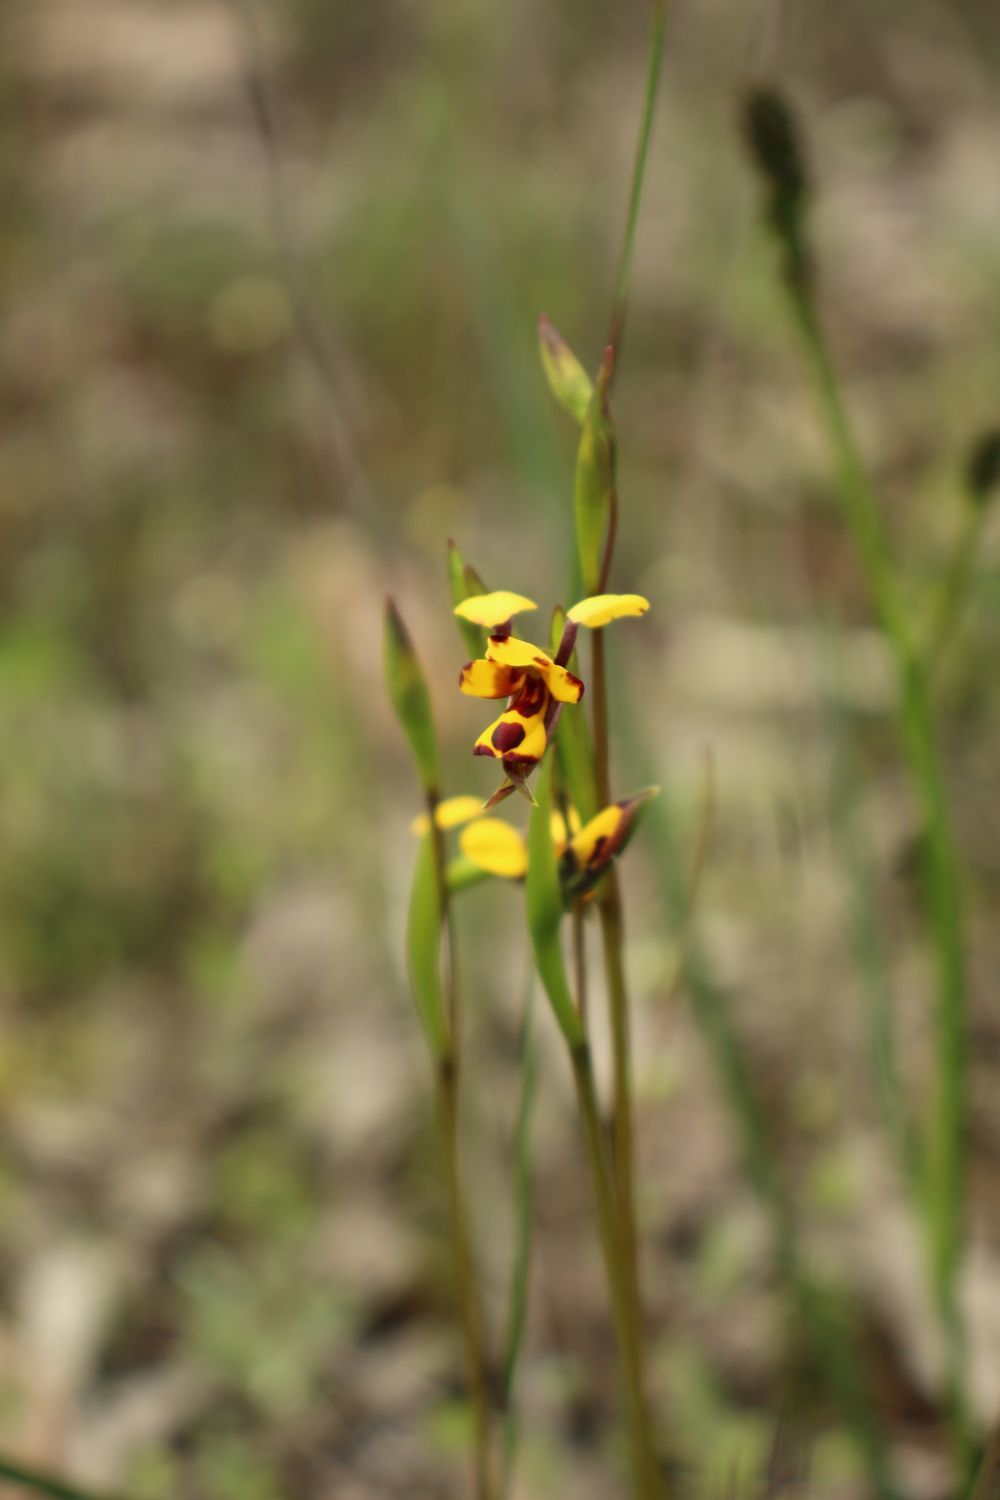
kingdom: Plantae
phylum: Tracheophyta
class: Liliopsida
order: Asparagales
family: Orchidaceae
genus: Diuris
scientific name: Diuris decrementum
